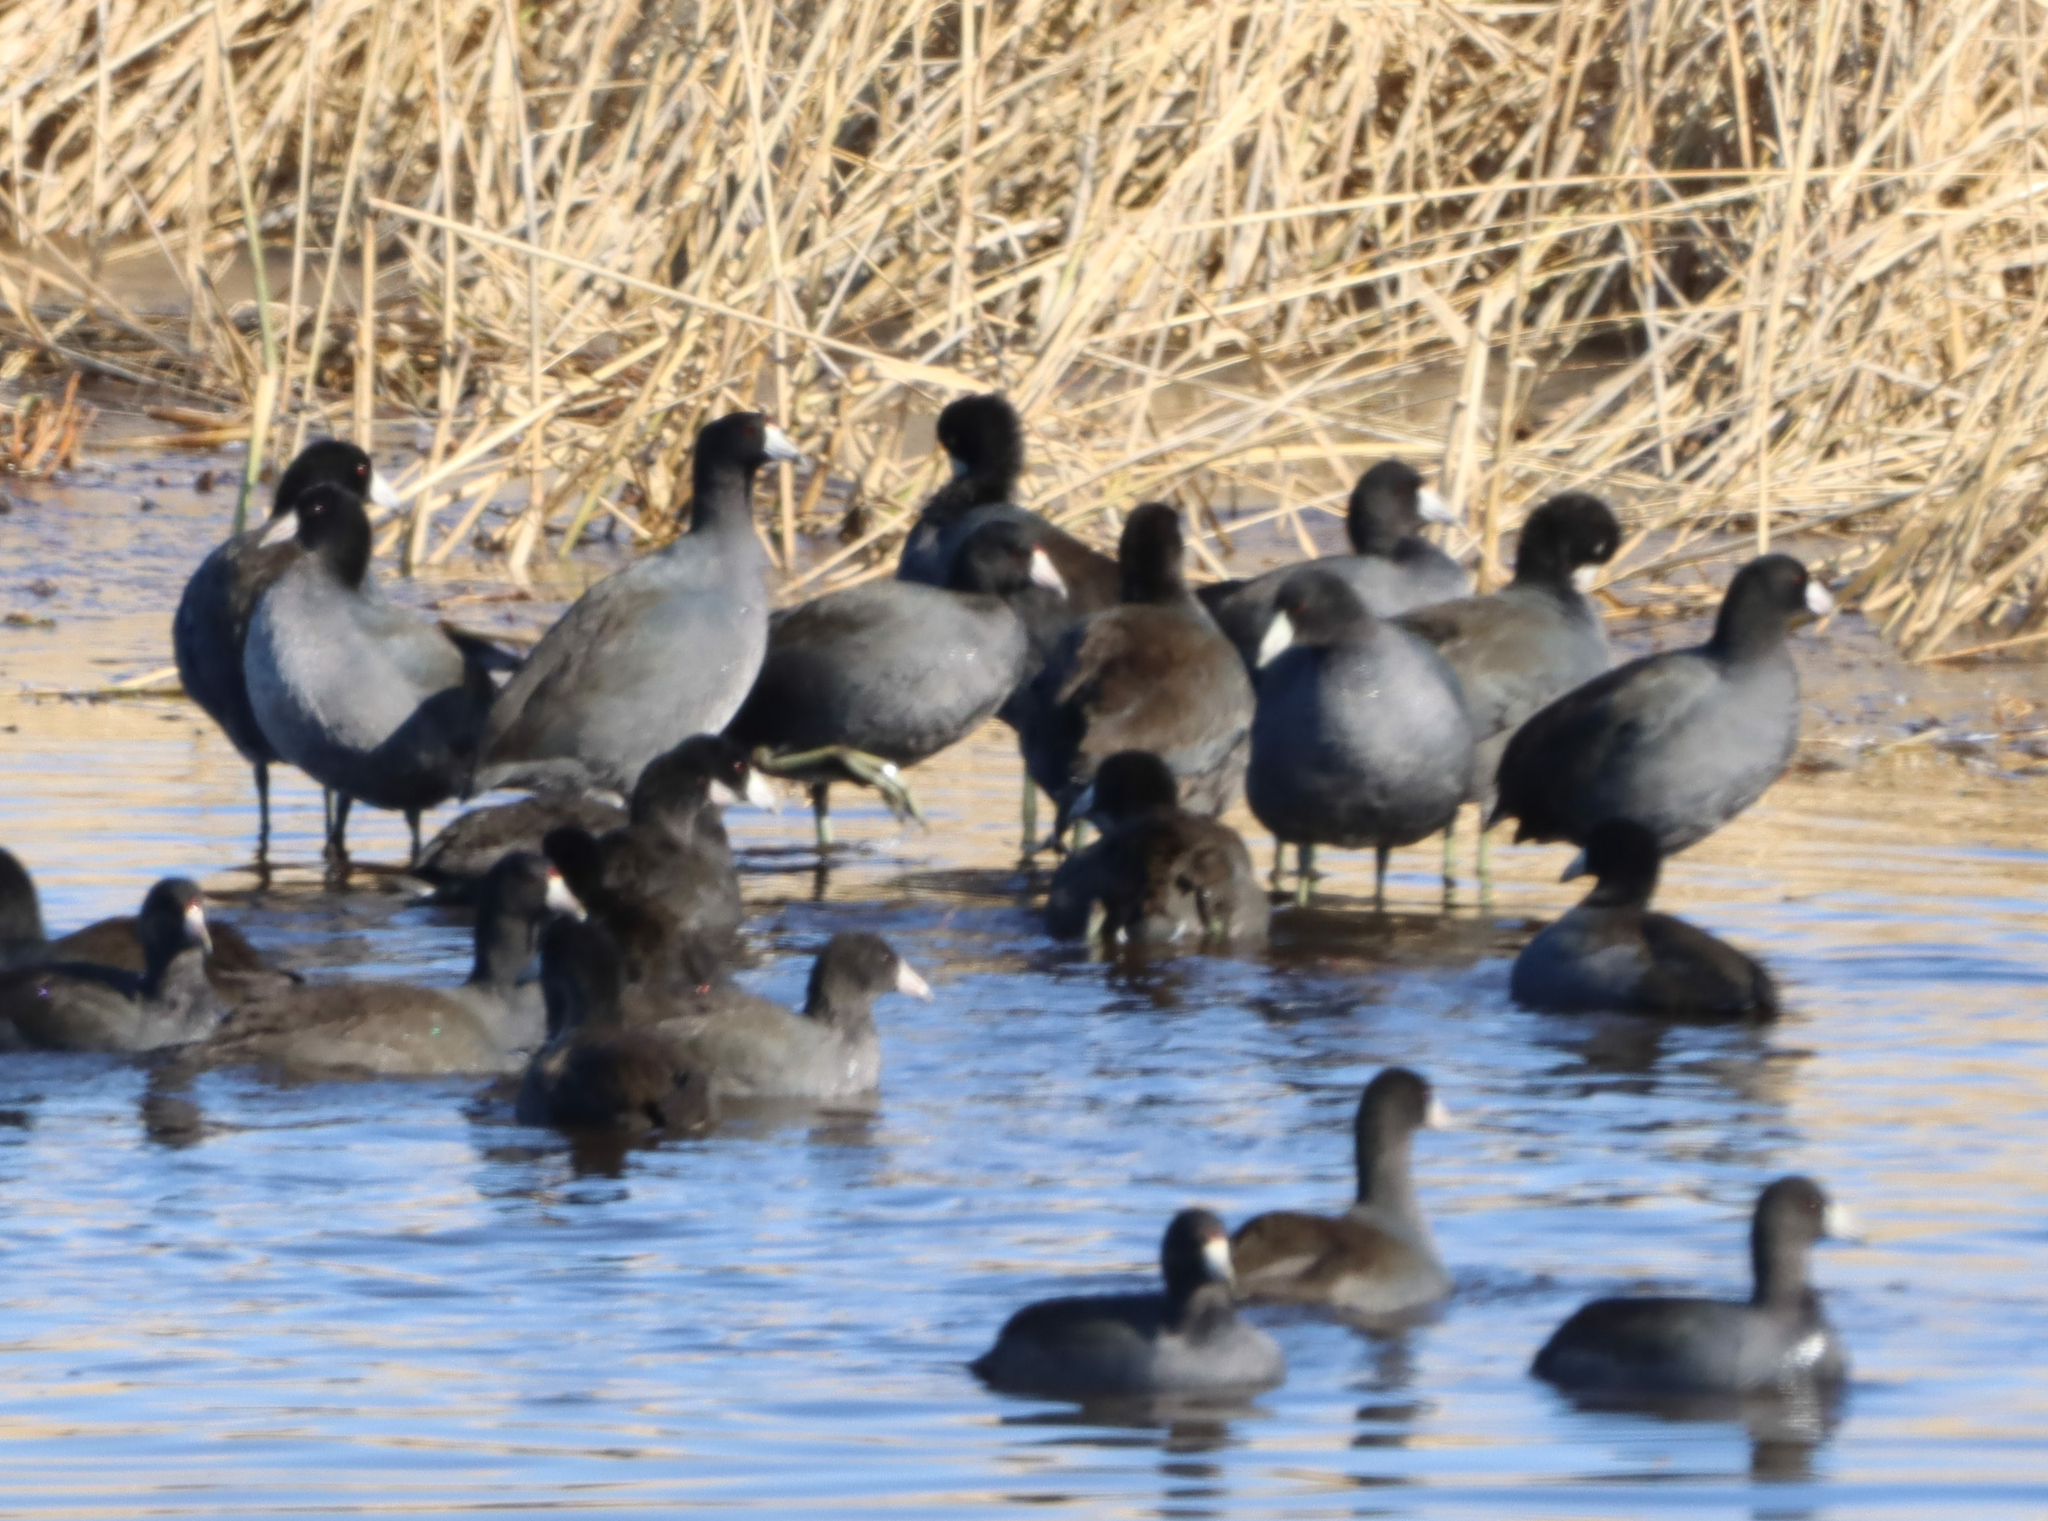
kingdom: Animalia
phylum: Chordata
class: Aves
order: Gruiformes
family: Rallidae
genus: Fulica
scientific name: Fulica americana
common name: American coot
